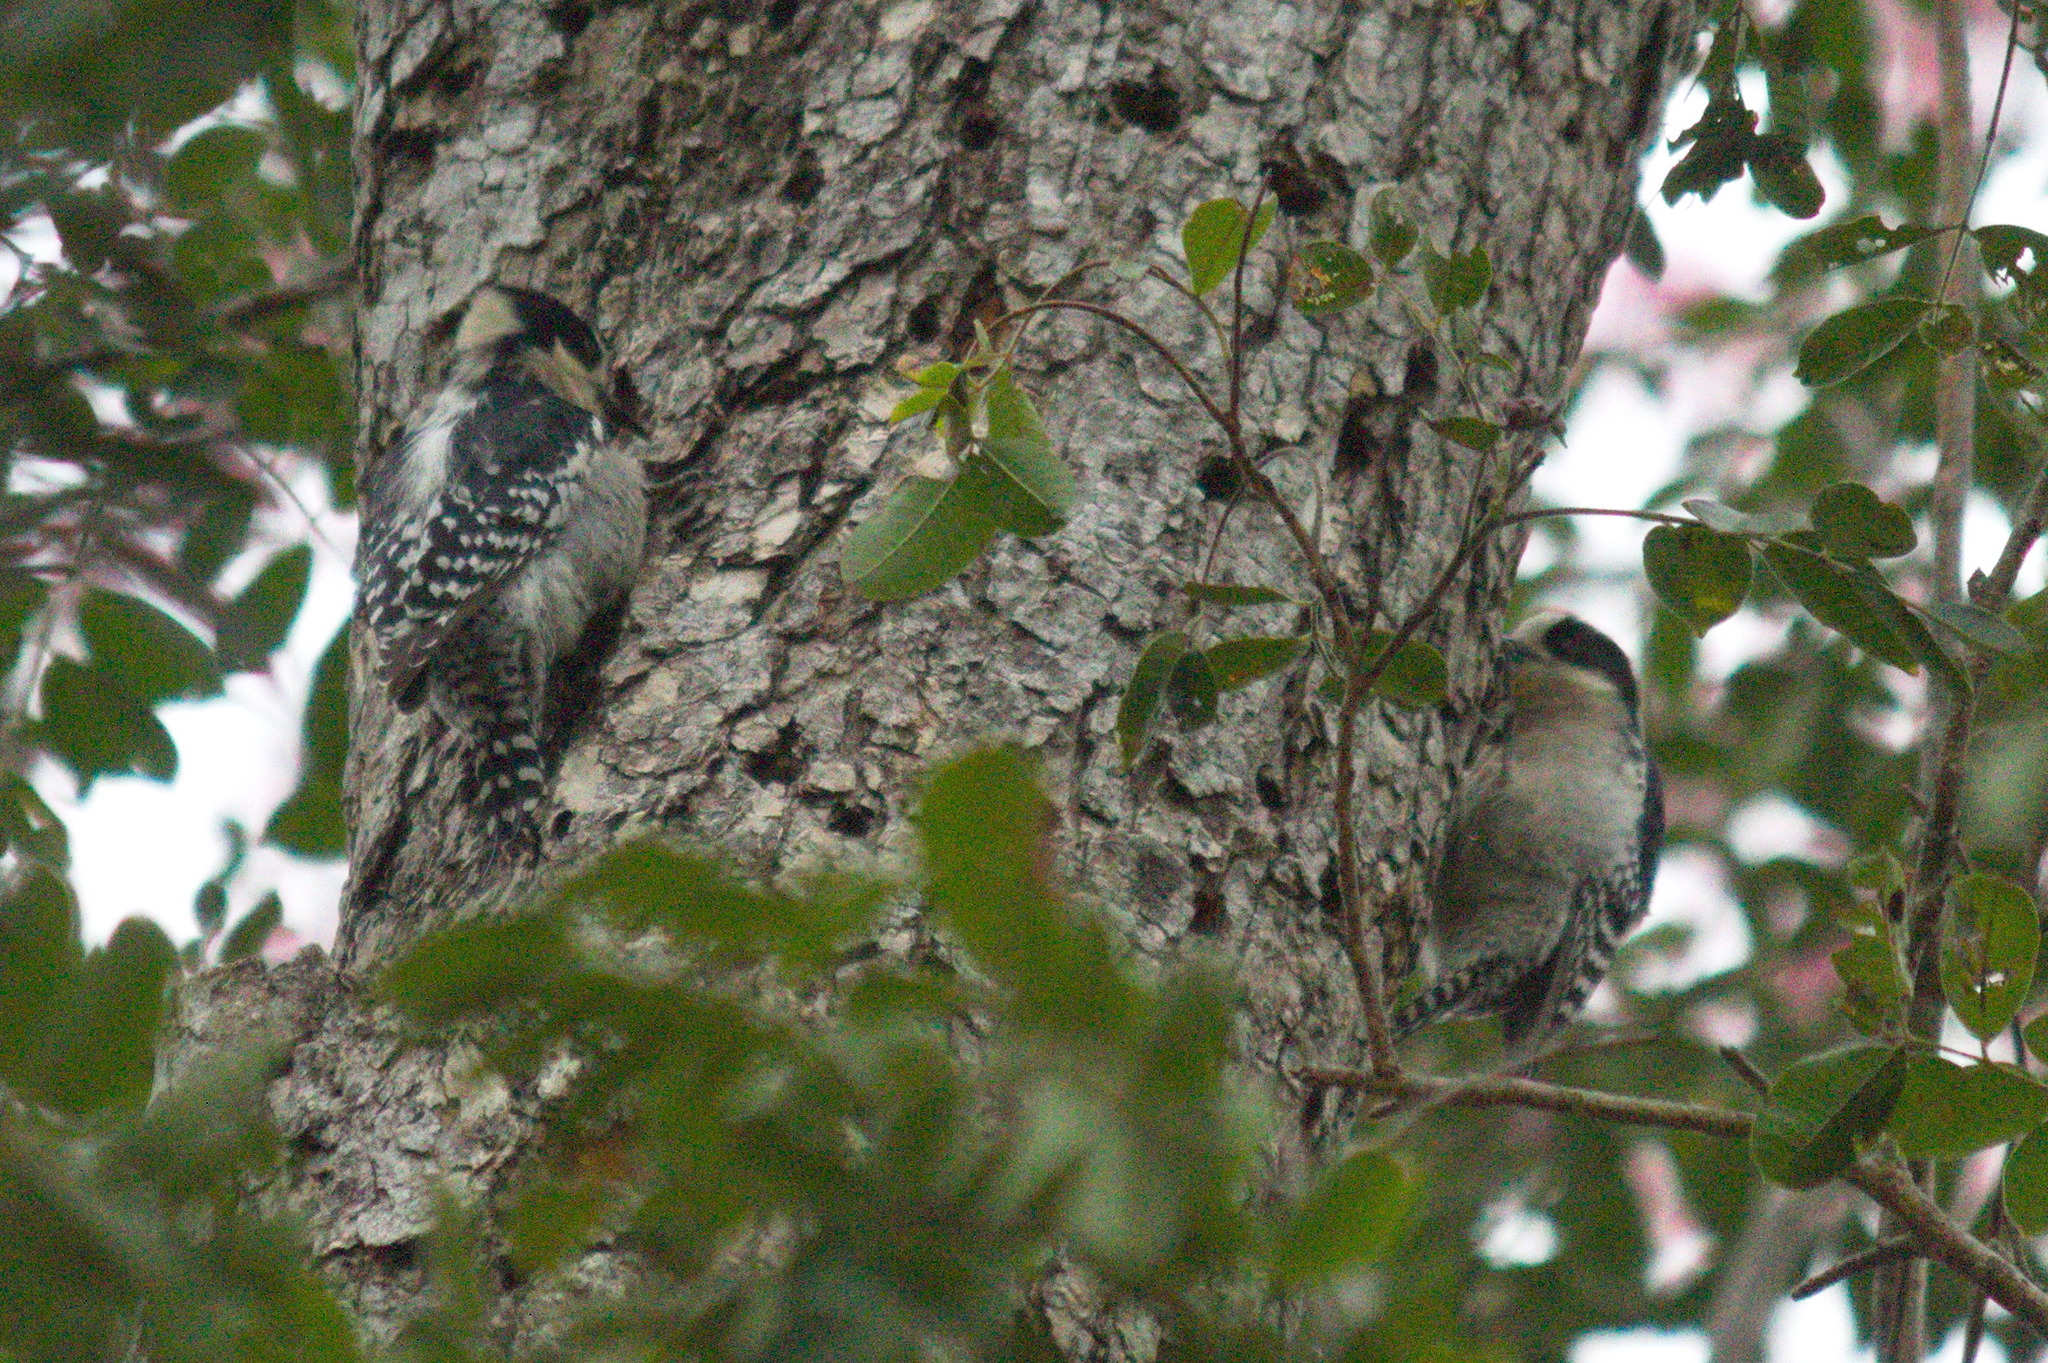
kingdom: Animalia
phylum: Chordata
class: Aves
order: Piciformes
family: Picidae
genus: Melanerpes
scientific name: Melanerpes cactorum
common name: White-fronted woodpecker
